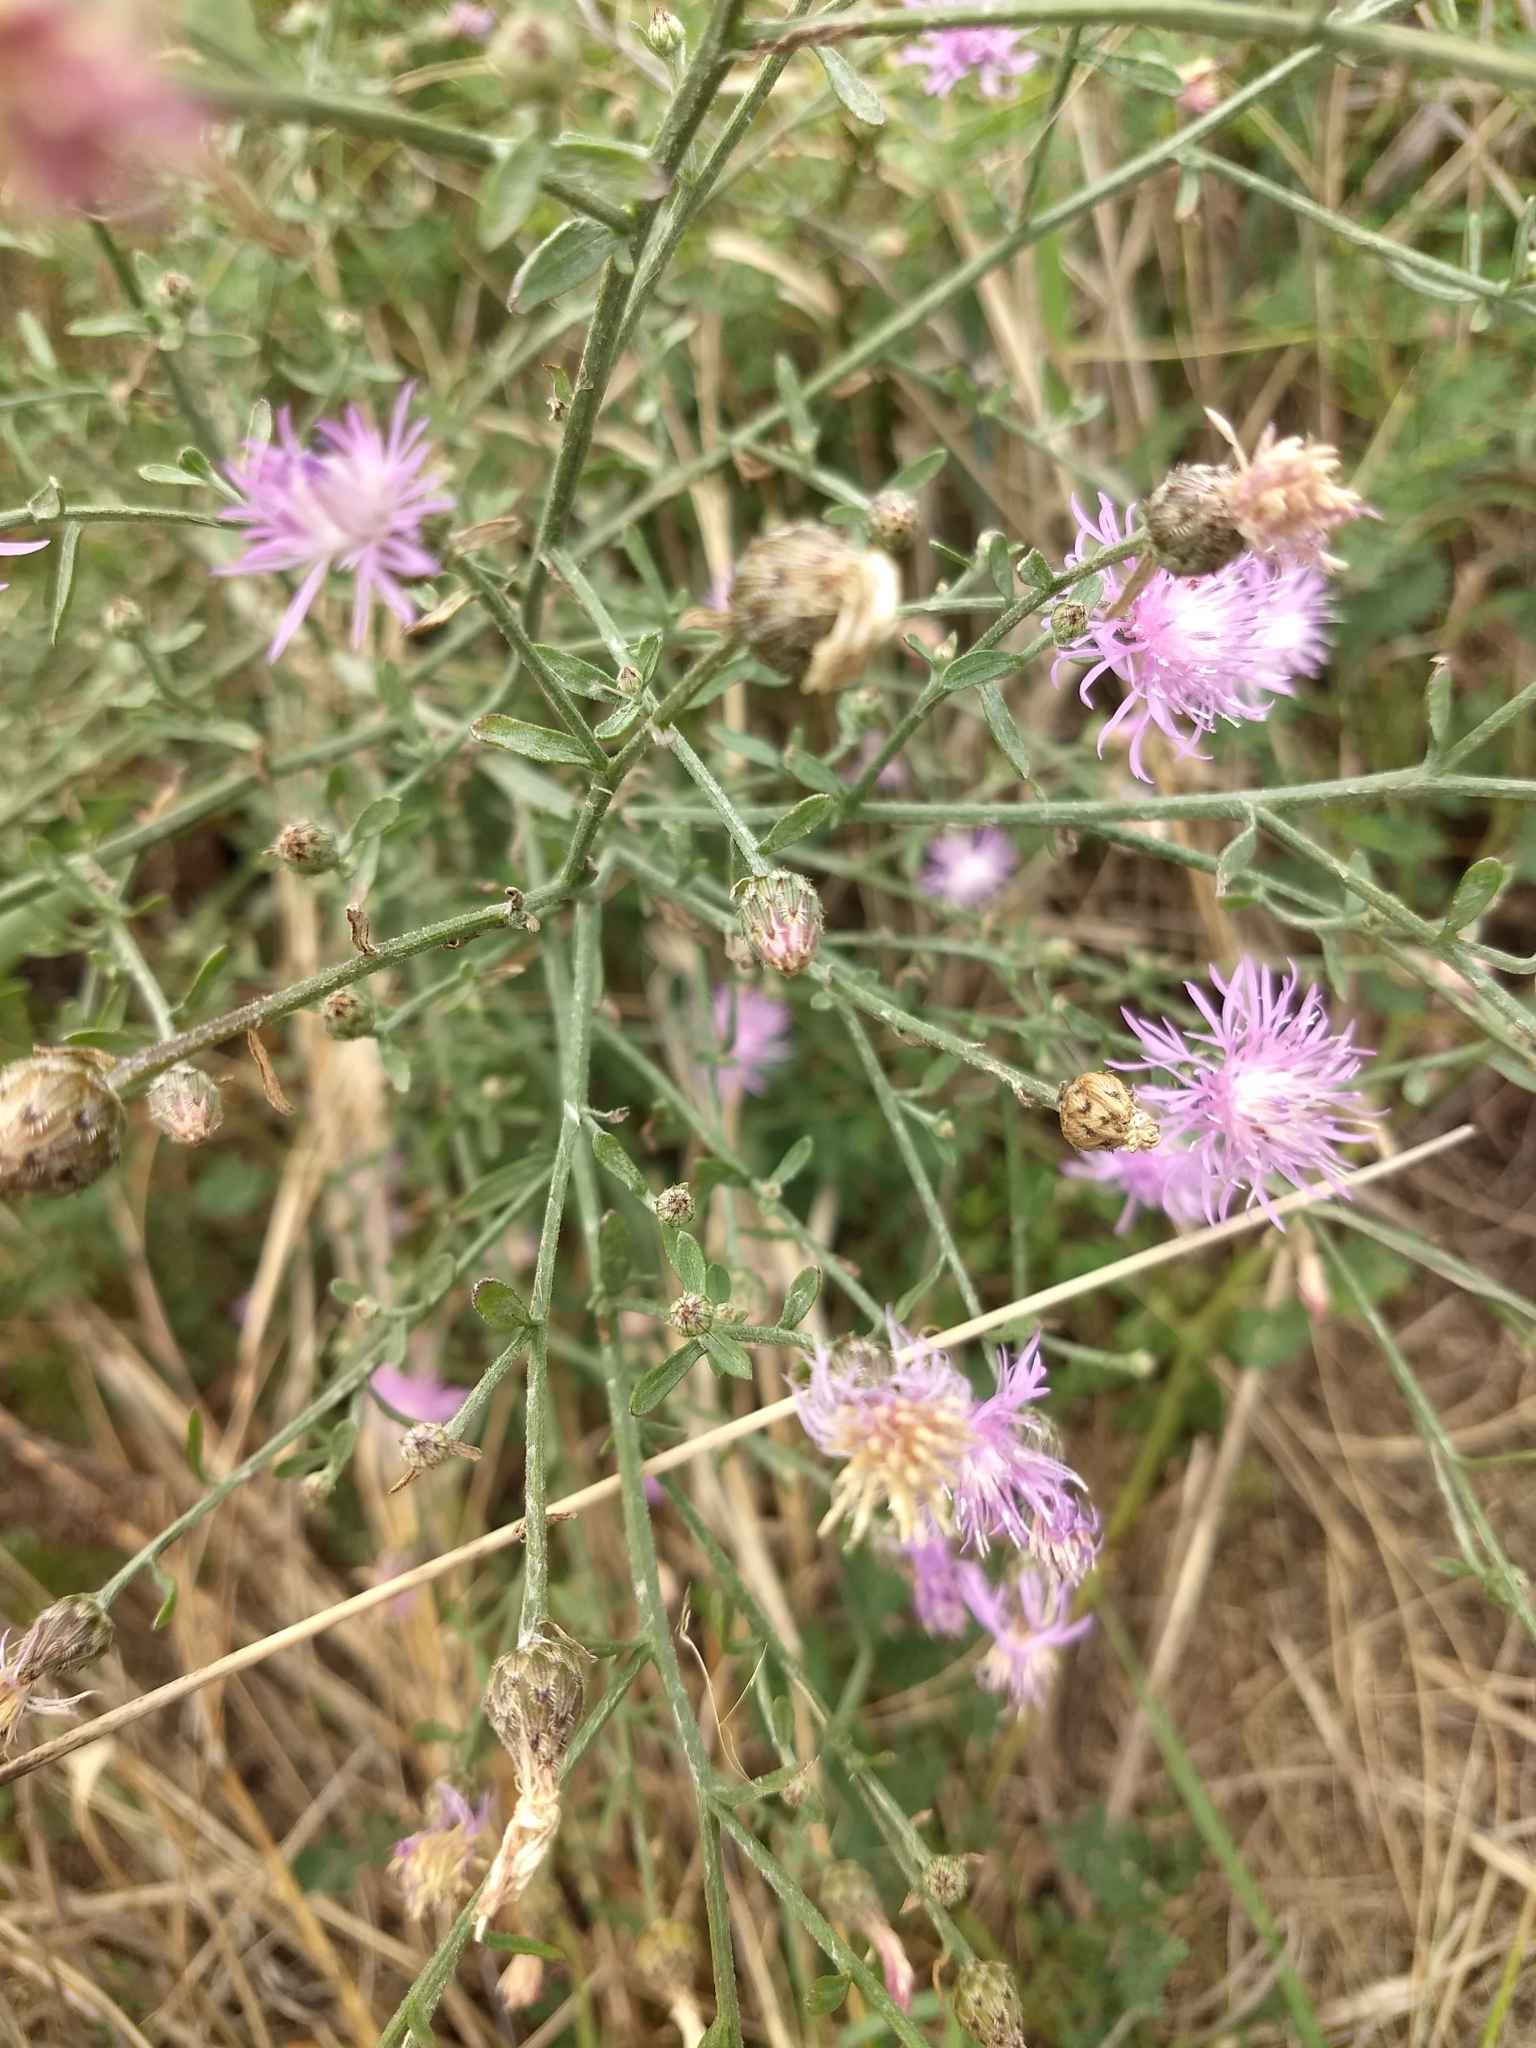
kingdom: Plantae
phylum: Tracheophyta
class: Magnoliopsida
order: Asterales
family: Asteraceae
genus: Centaurea
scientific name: Centaurea
